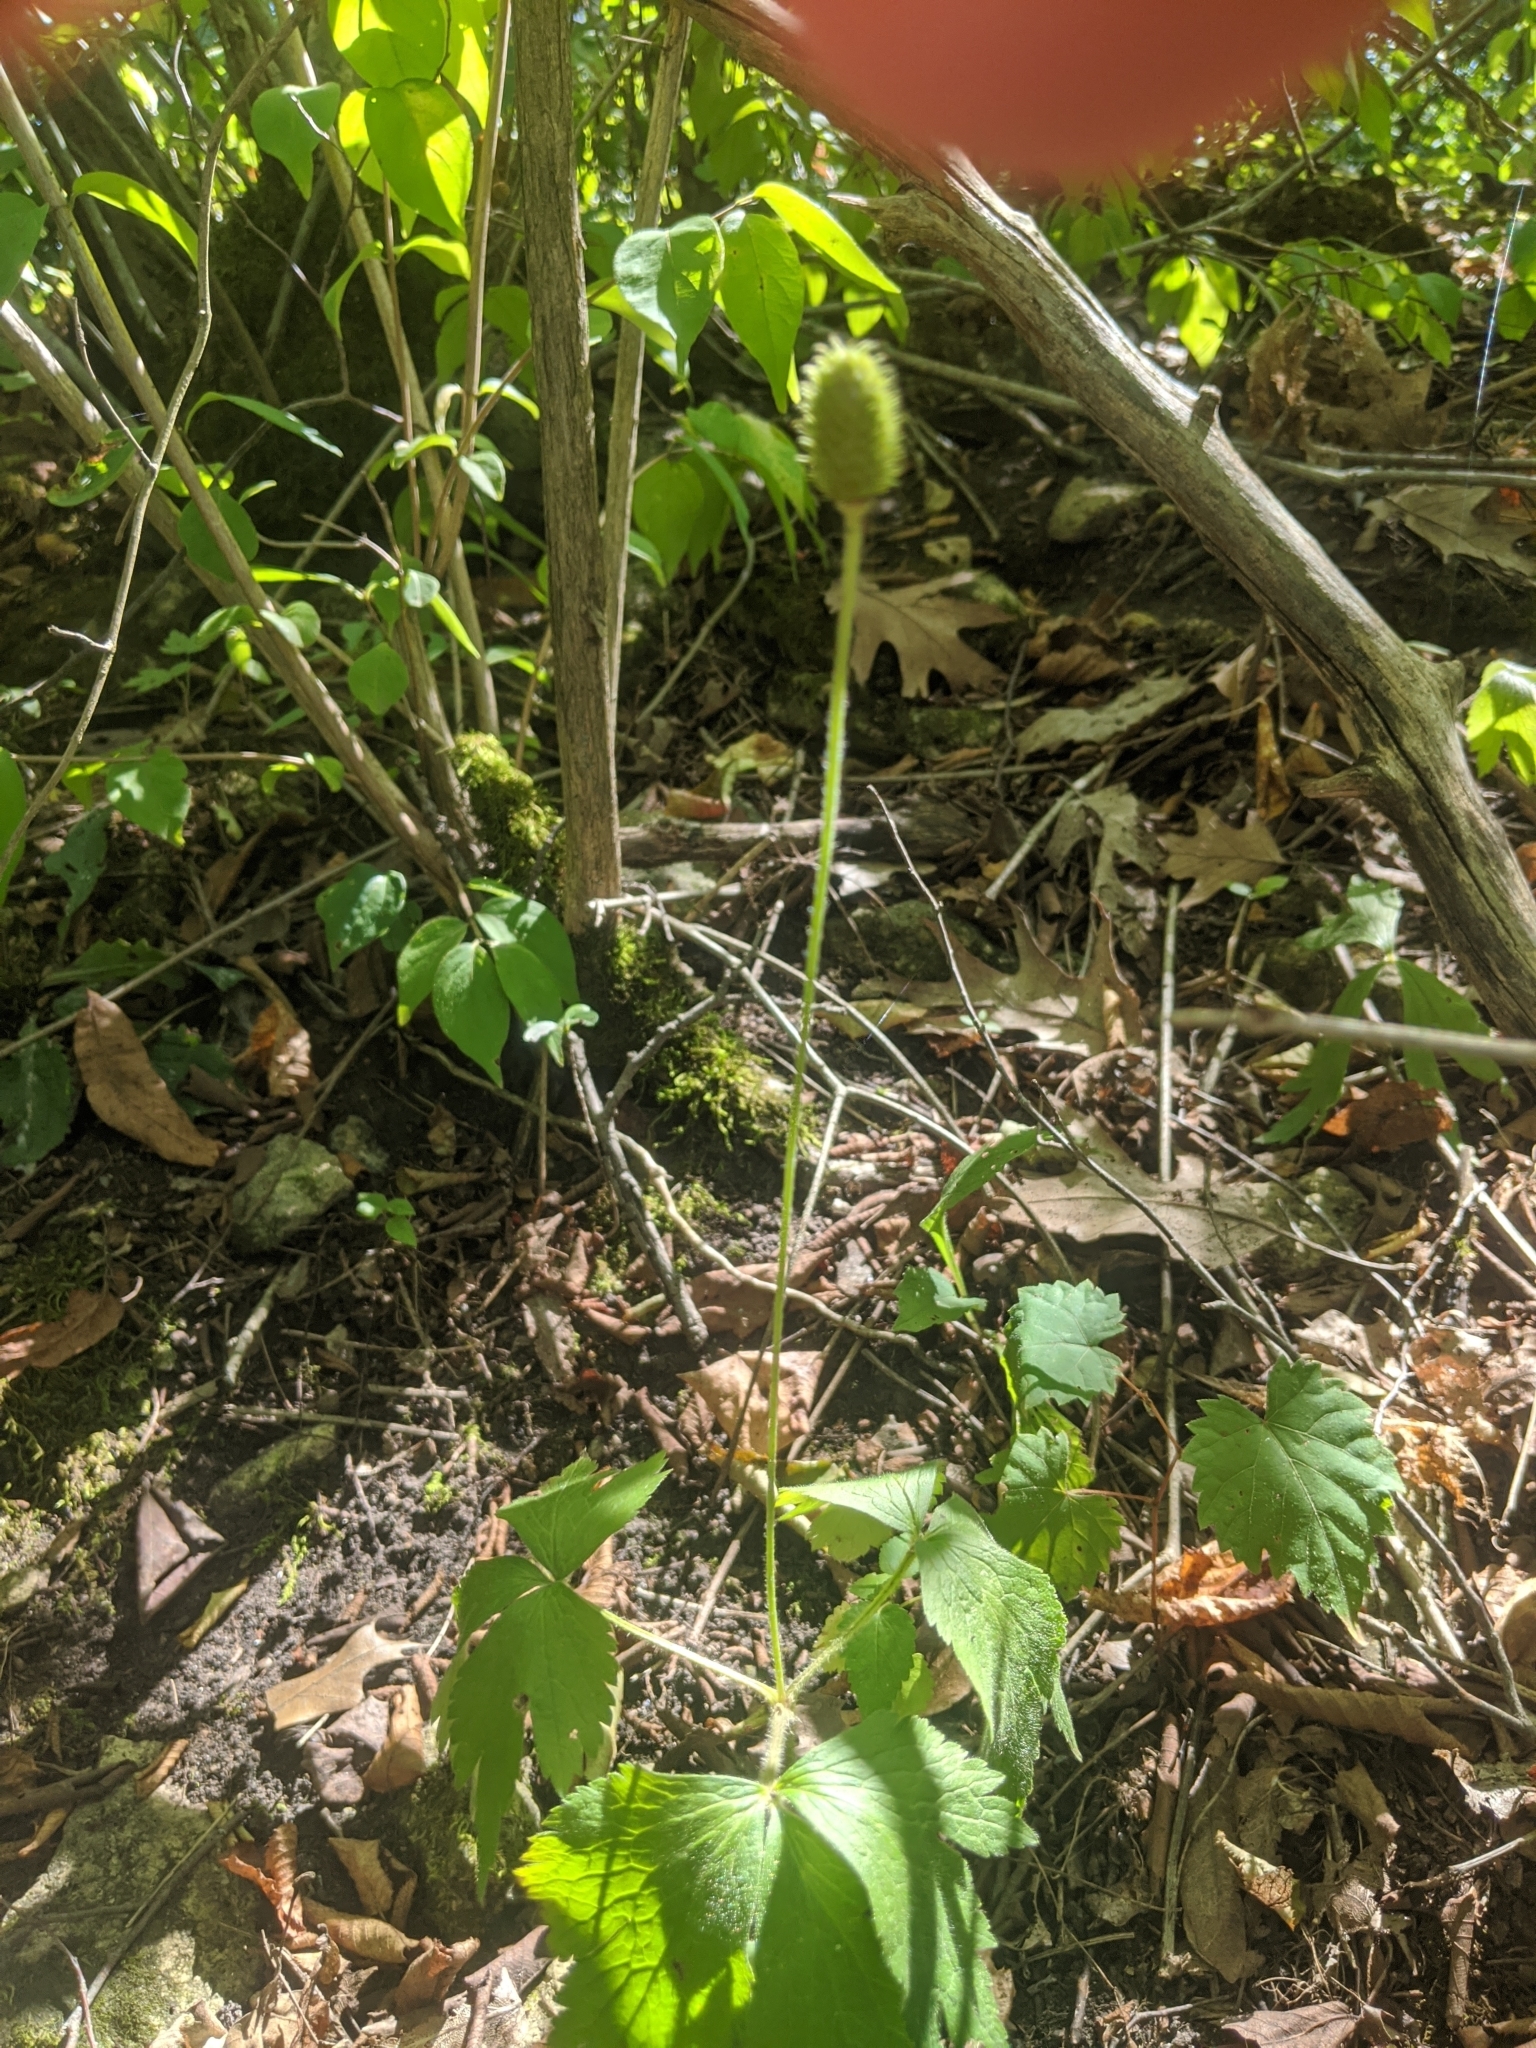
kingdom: Plantae
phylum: Tracheophyta
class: Magnoliopsida
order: Ranunculales
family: Ranunculaceae
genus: Anemone
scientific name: Anemone virginiana
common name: Tall anemone
